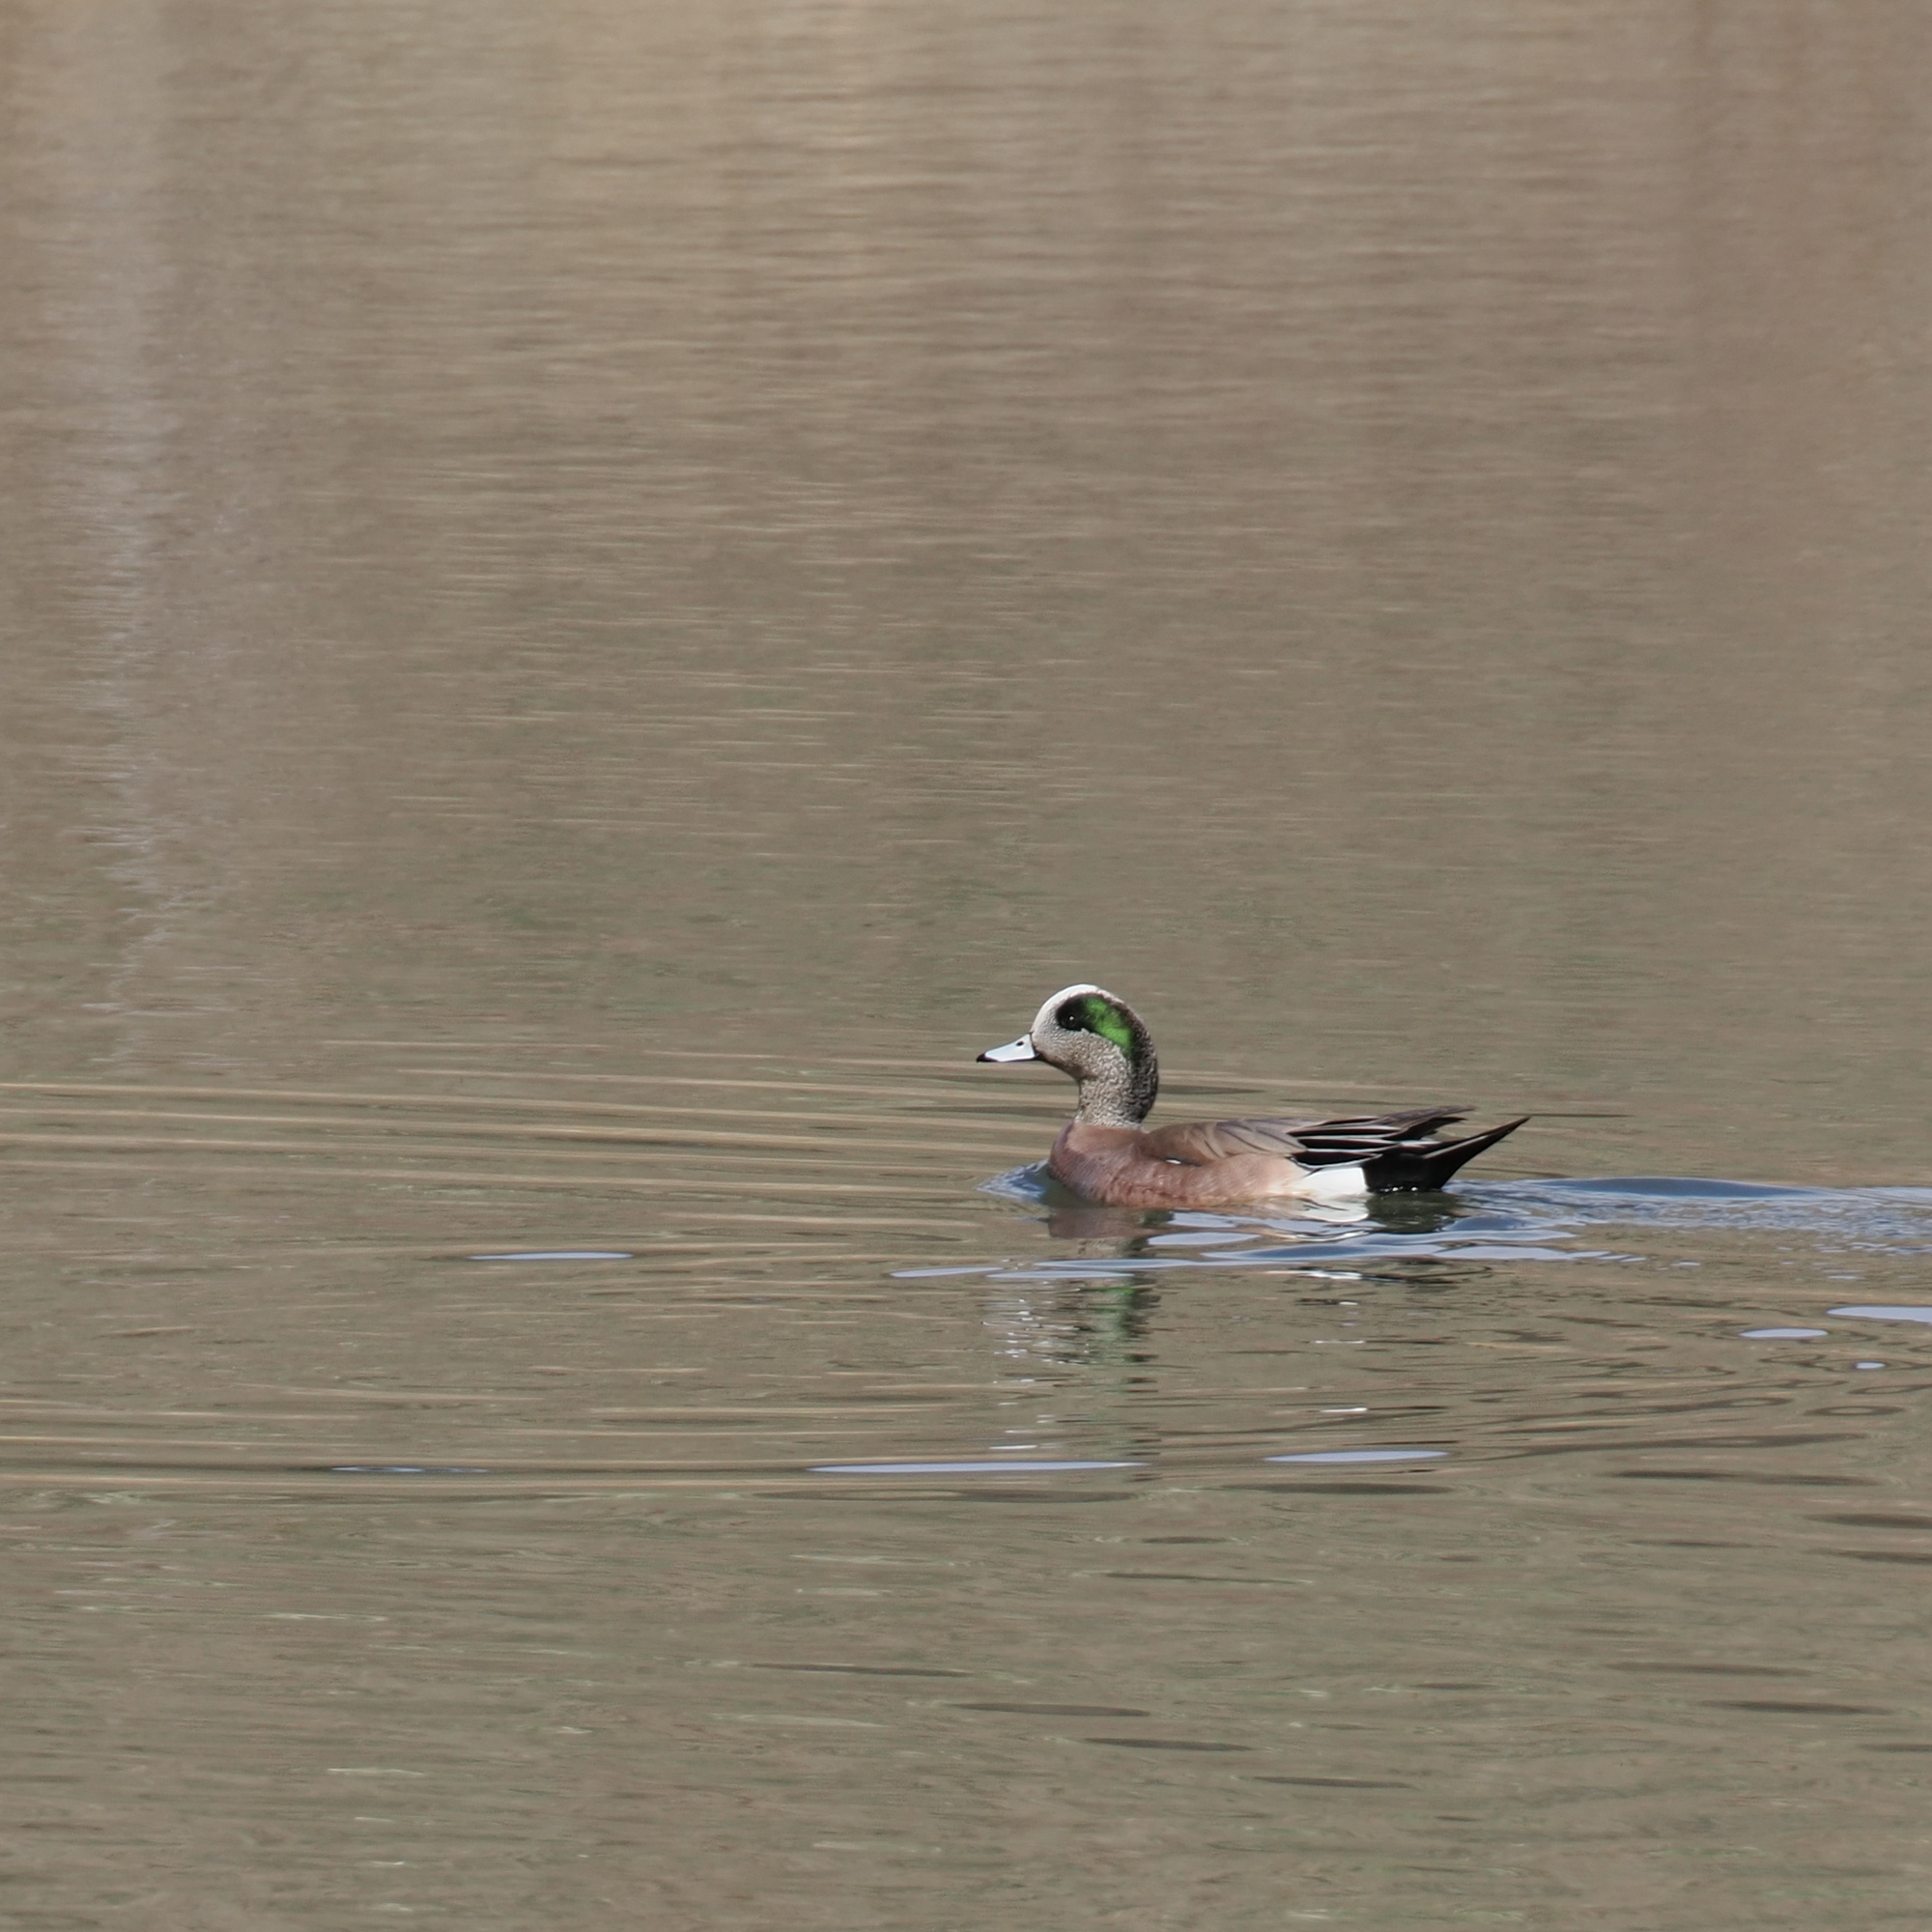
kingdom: Animalia
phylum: Chordata
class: Aves
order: Anseriformes
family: Anatidae
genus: Mareca
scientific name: Mareca americana
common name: American wigeon
